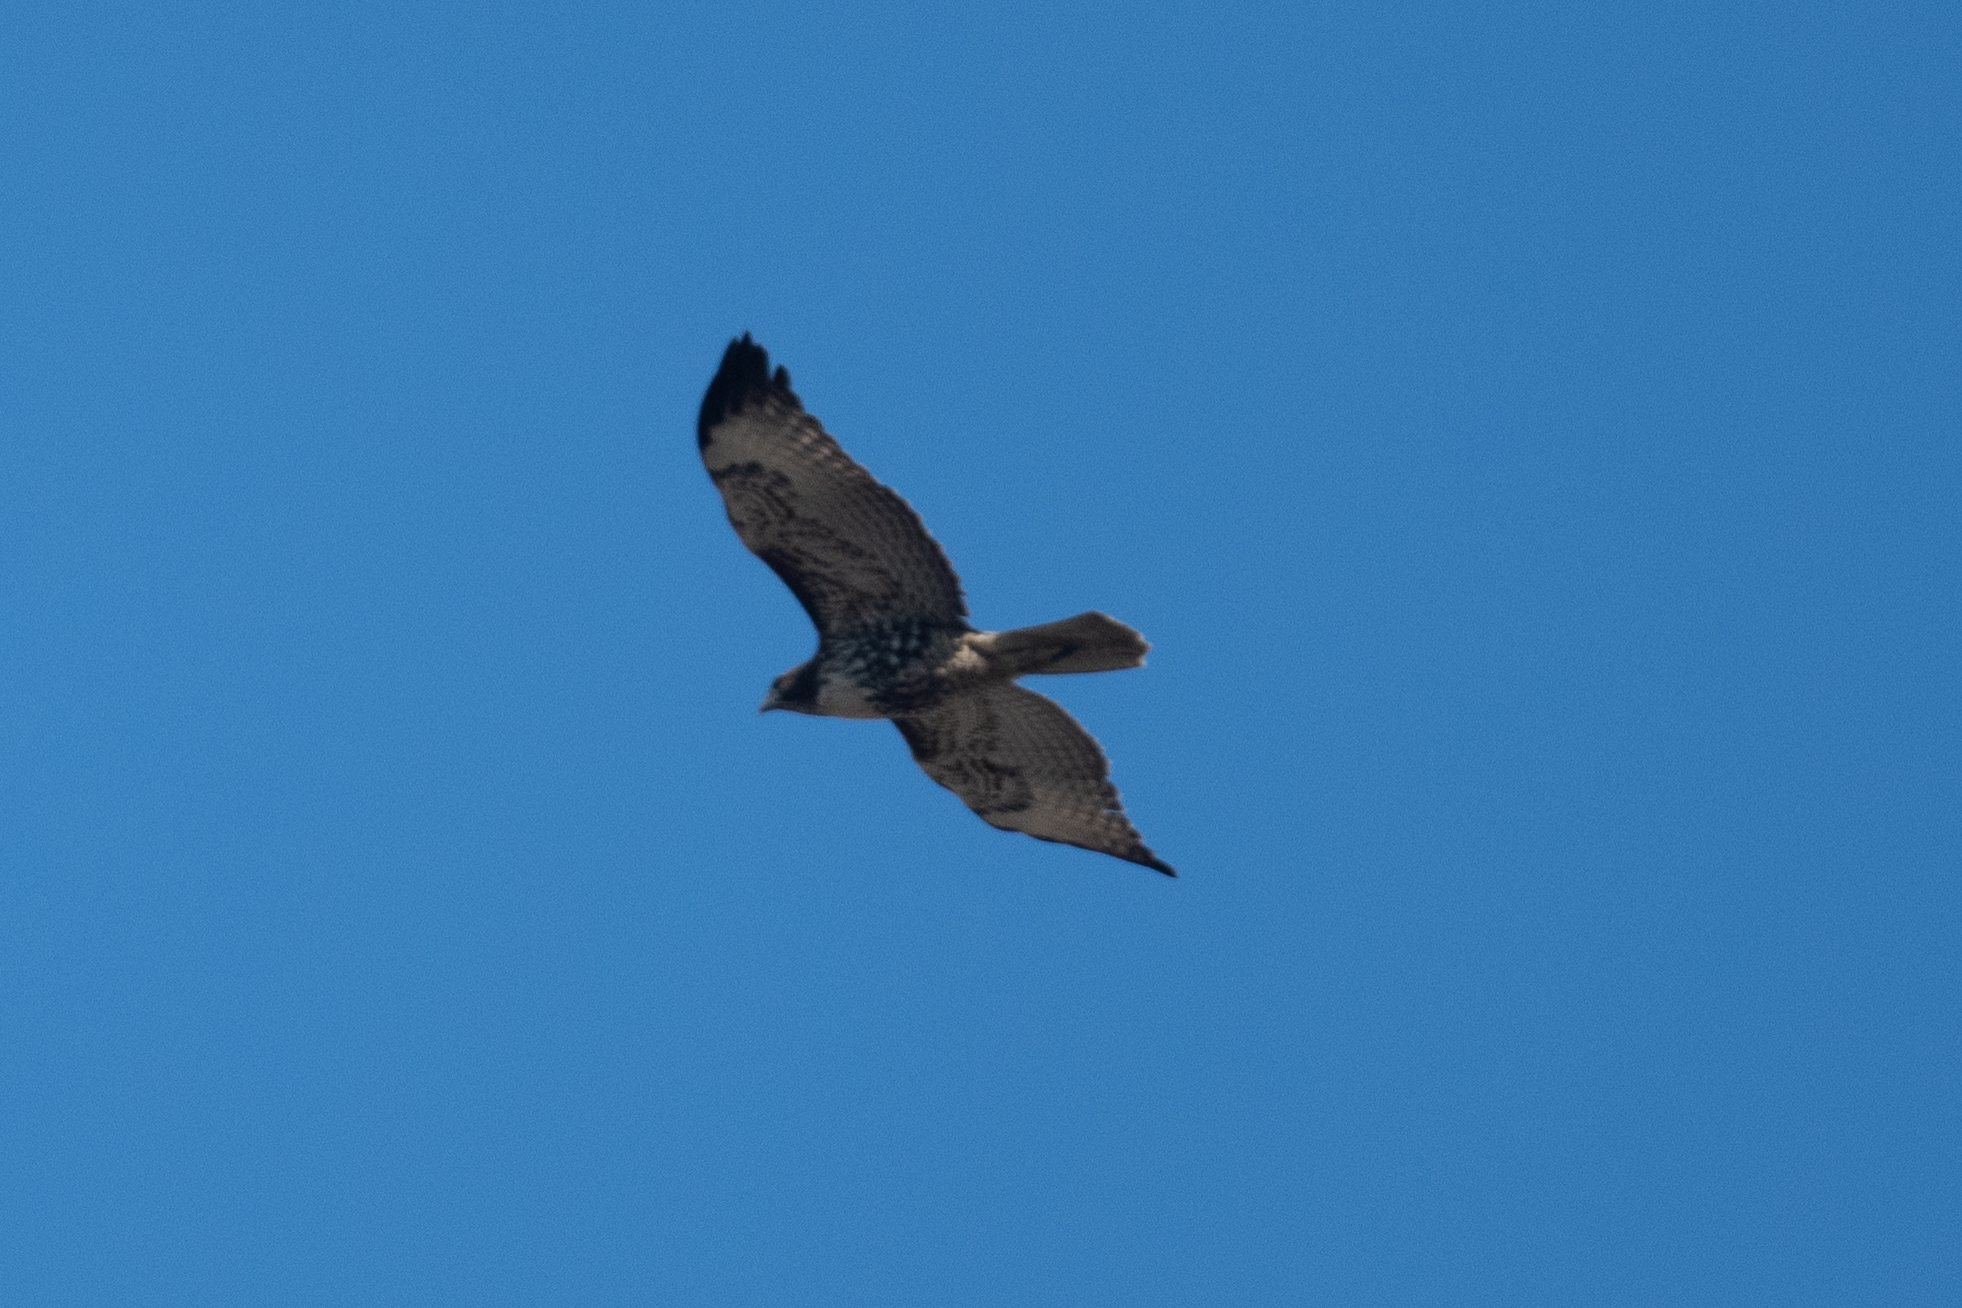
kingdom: Animalia
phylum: Chordata
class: Aves
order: Accipitriformes
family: Accipitridae
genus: Buteo
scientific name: Buteo jamaicensis
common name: Red-tailed hawk
